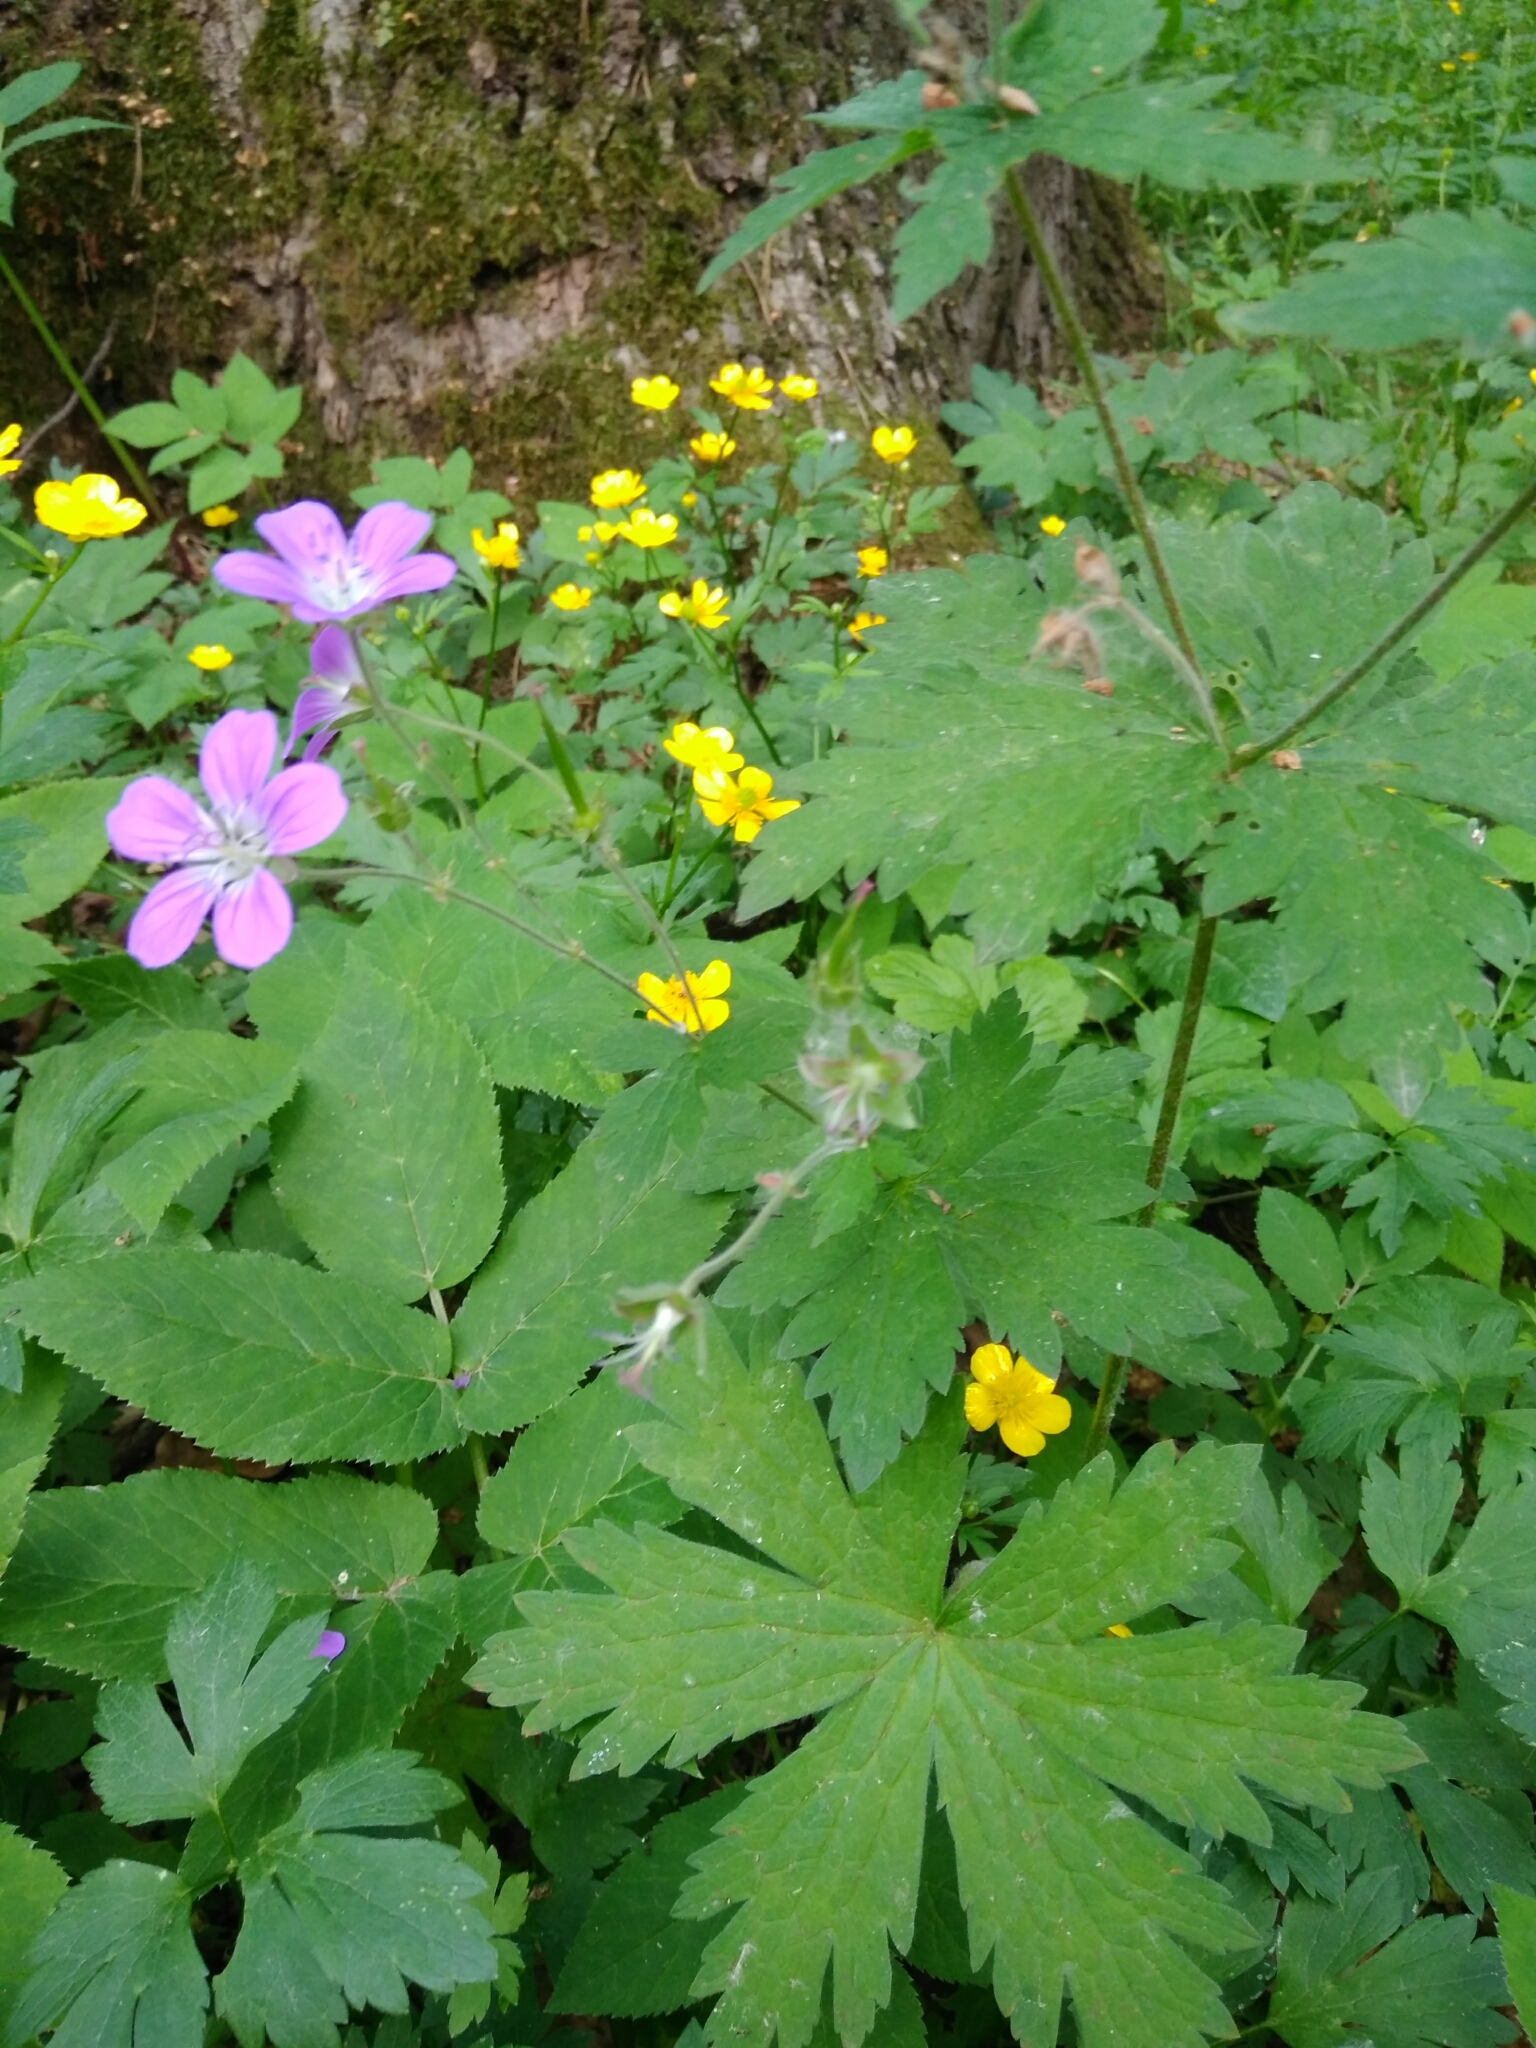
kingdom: Plantae
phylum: Tracheophyta
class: Magnoliopsida
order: Geraniales
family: Geraniaceae
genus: Geranium
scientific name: Geranium sylvaticum
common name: Wood crane's-bill
